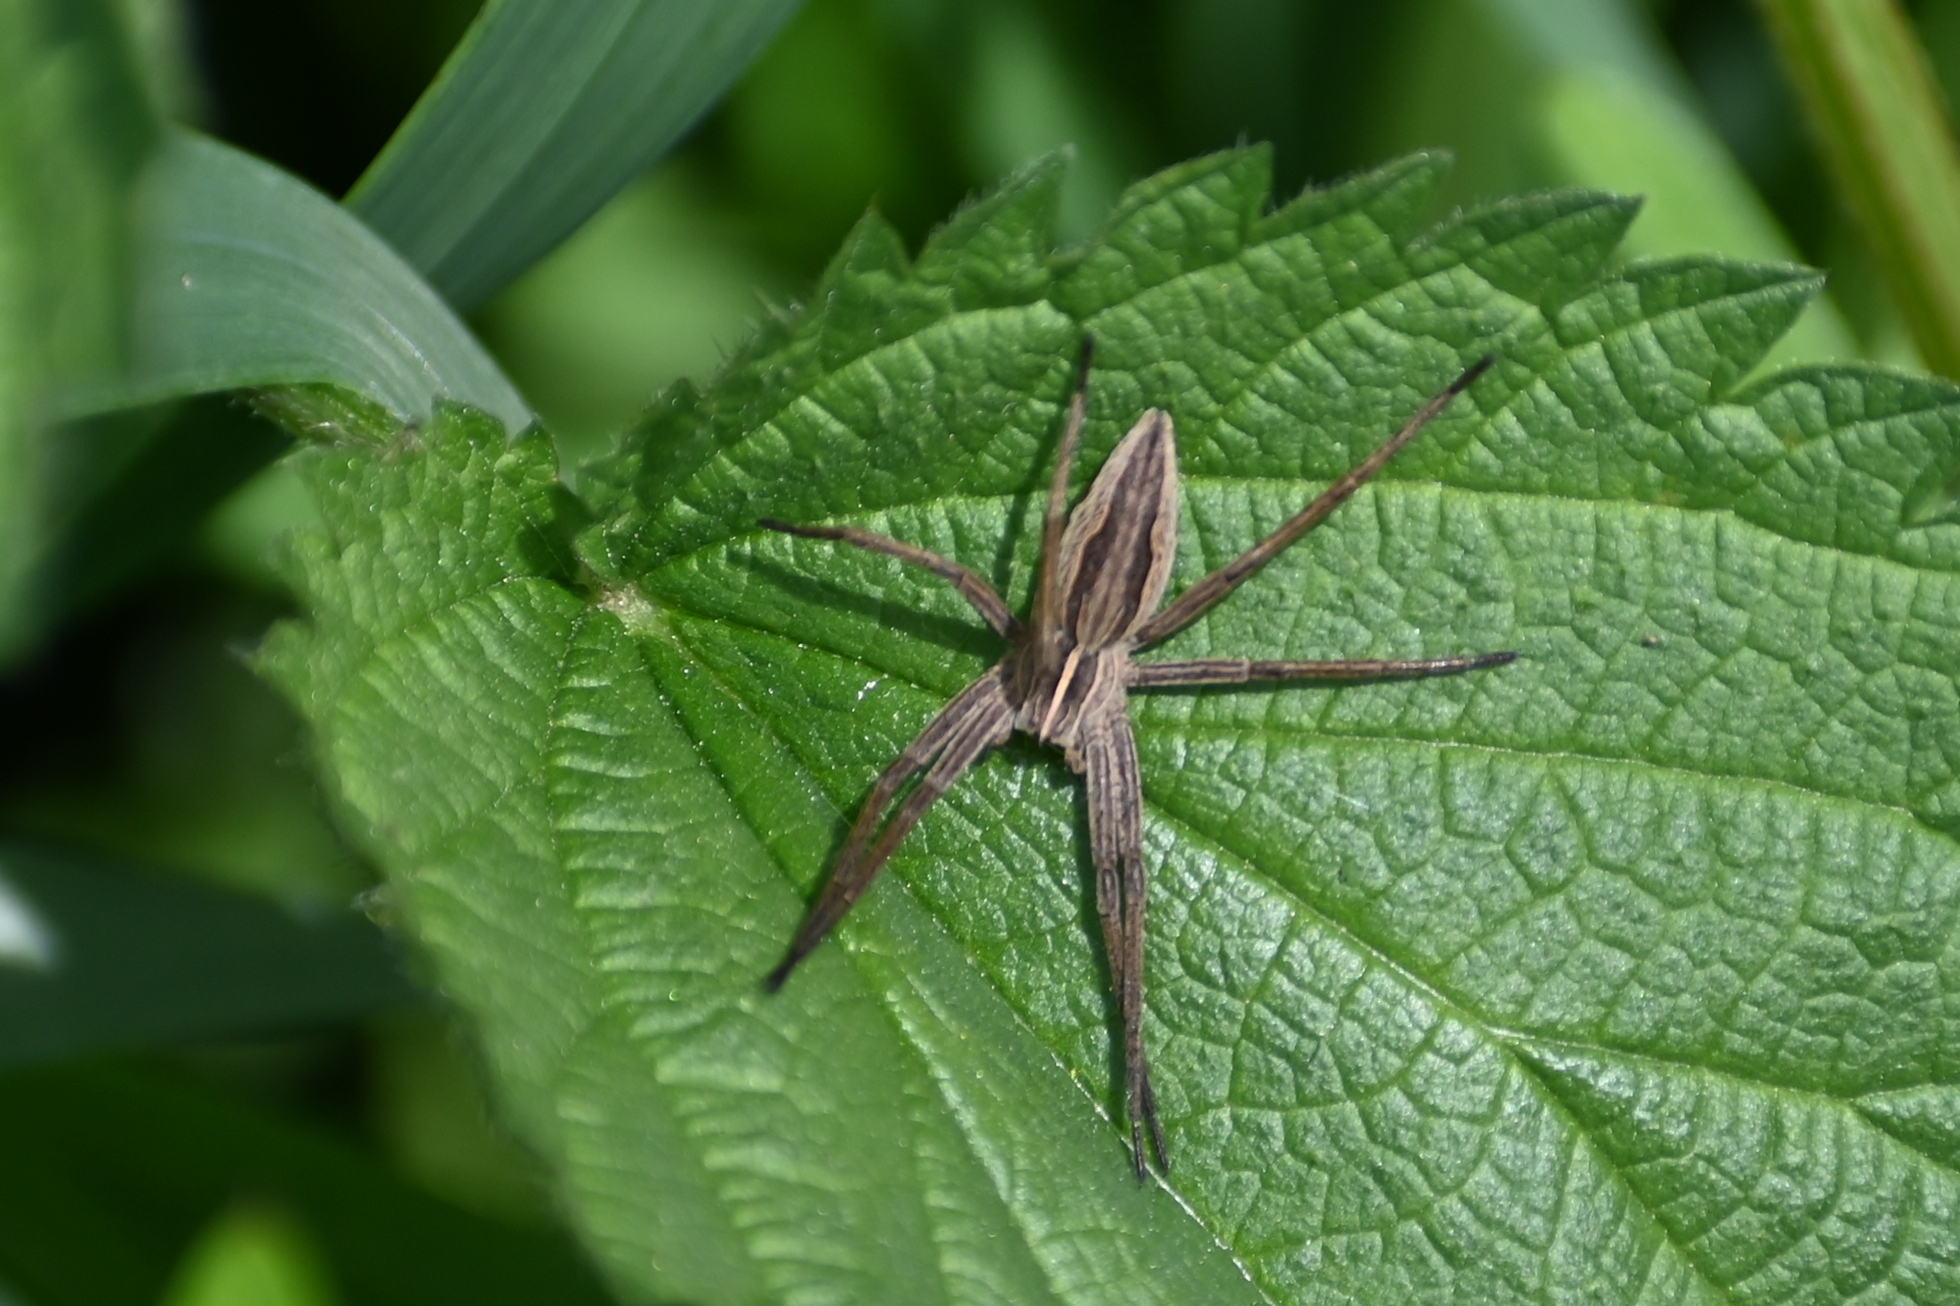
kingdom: Animalia
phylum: Arthropoda
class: Arachnida
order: Araneae
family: Pisauridae
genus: Pisaura
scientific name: Pisaura mirabilis
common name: Tent spider
